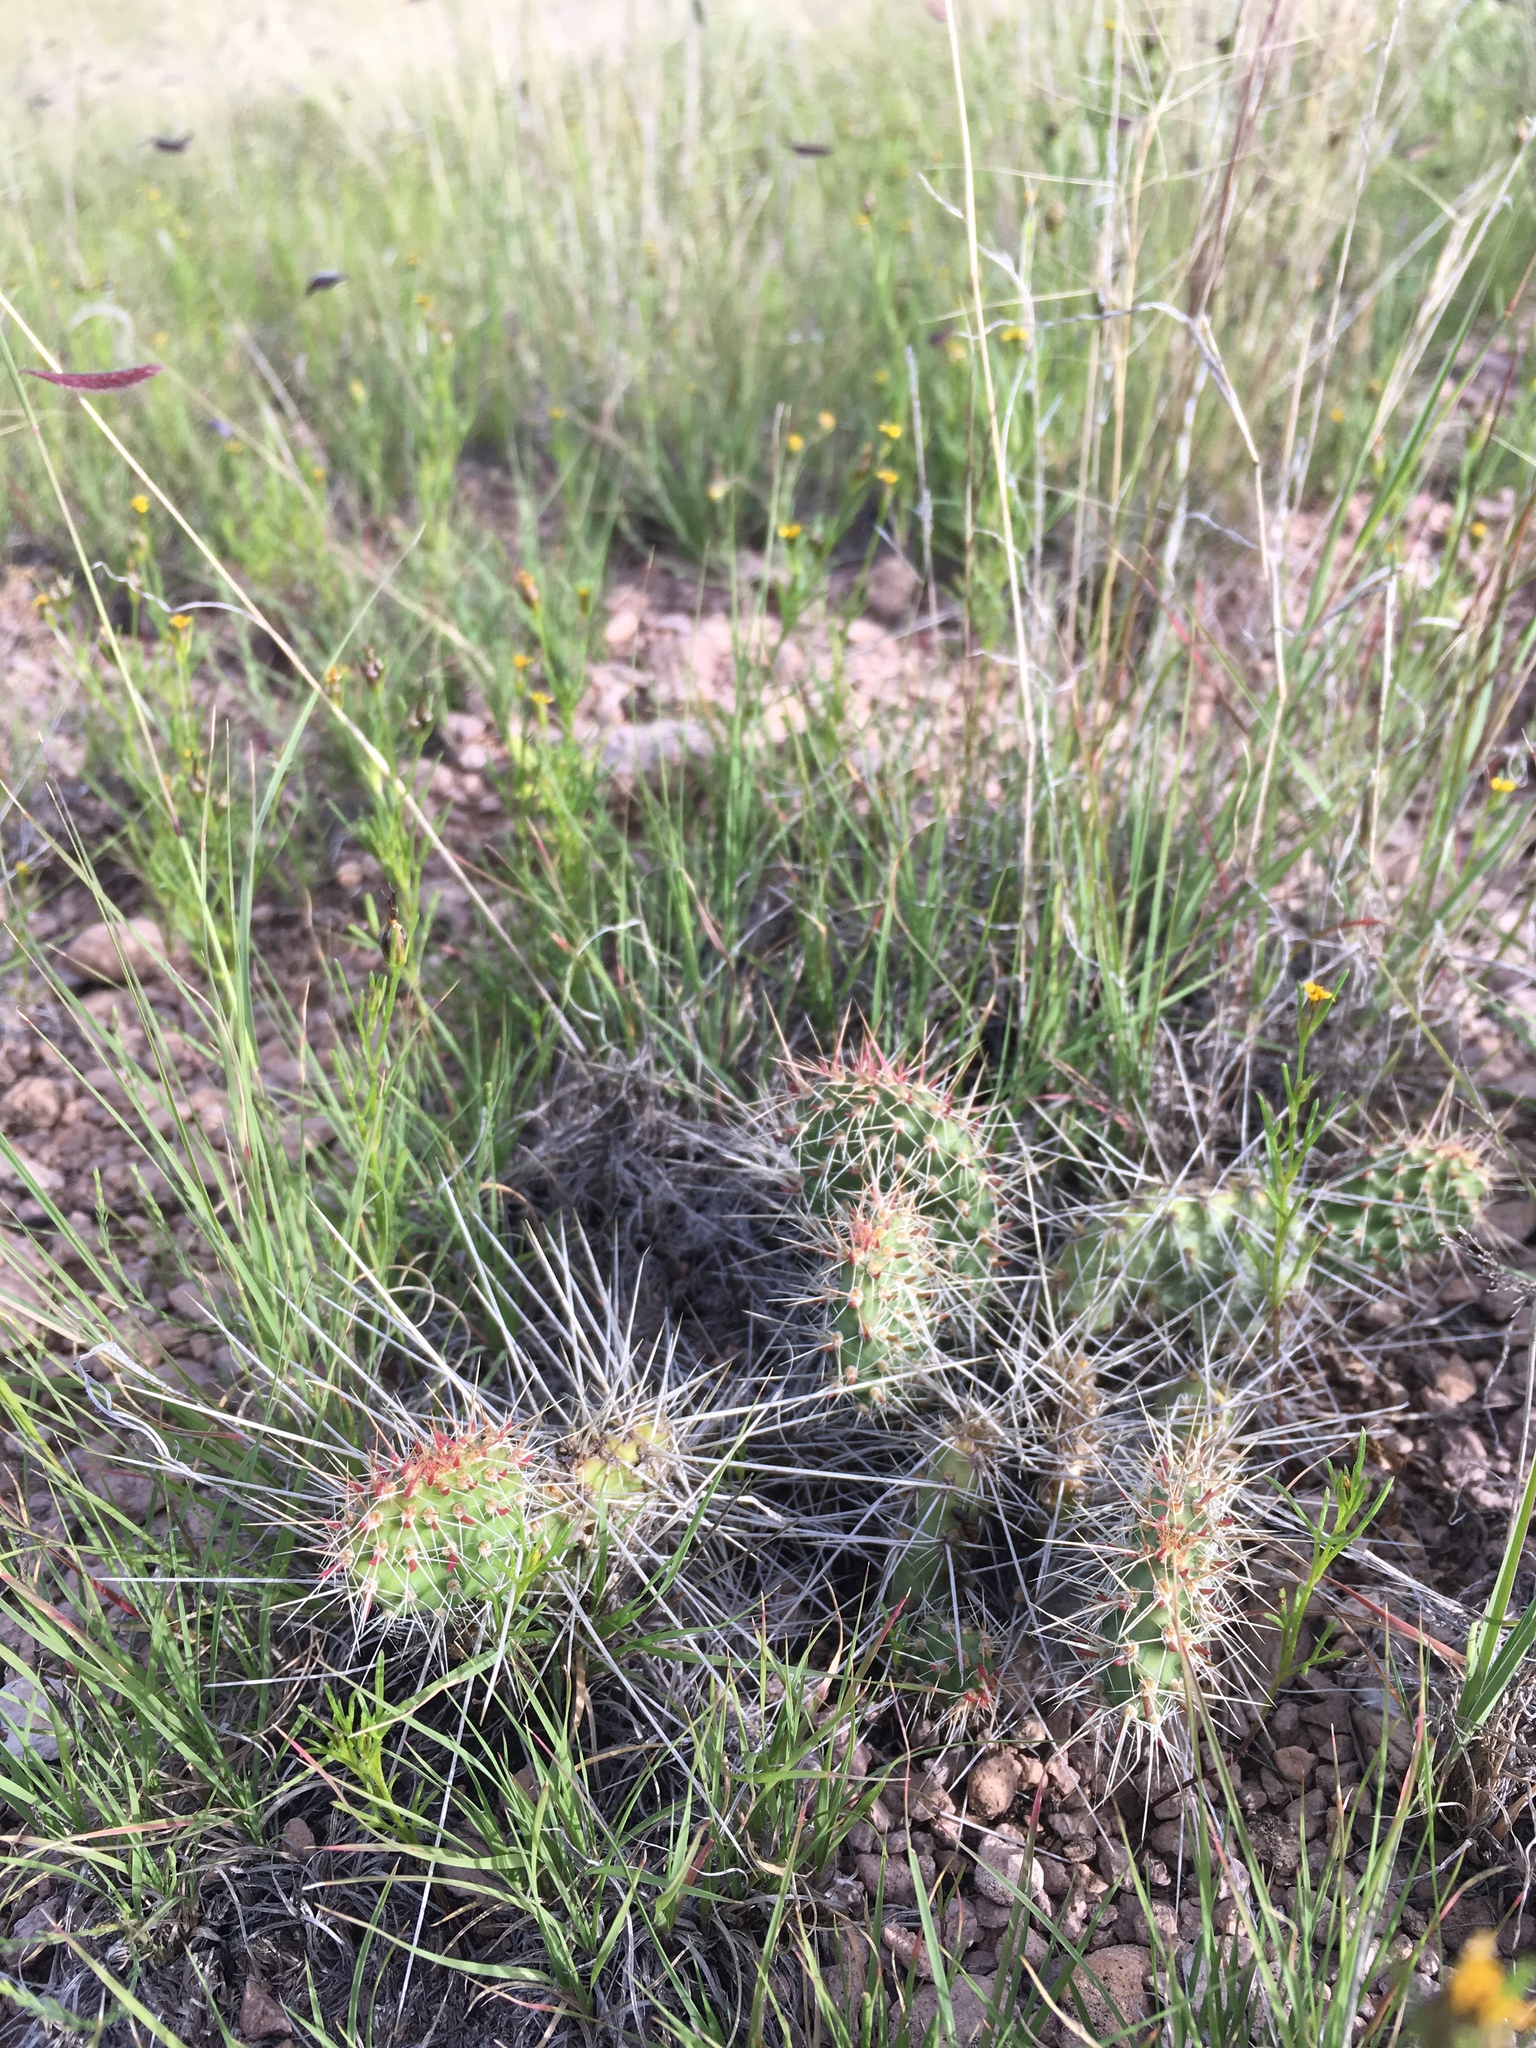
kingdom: Plantae
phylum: Tracheophyta
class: Magnoliopsida
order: Caryophyllales
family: Cactaceae
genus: Opuntia
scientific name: Opuntia polyacantha
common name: Plains prickly-pear
